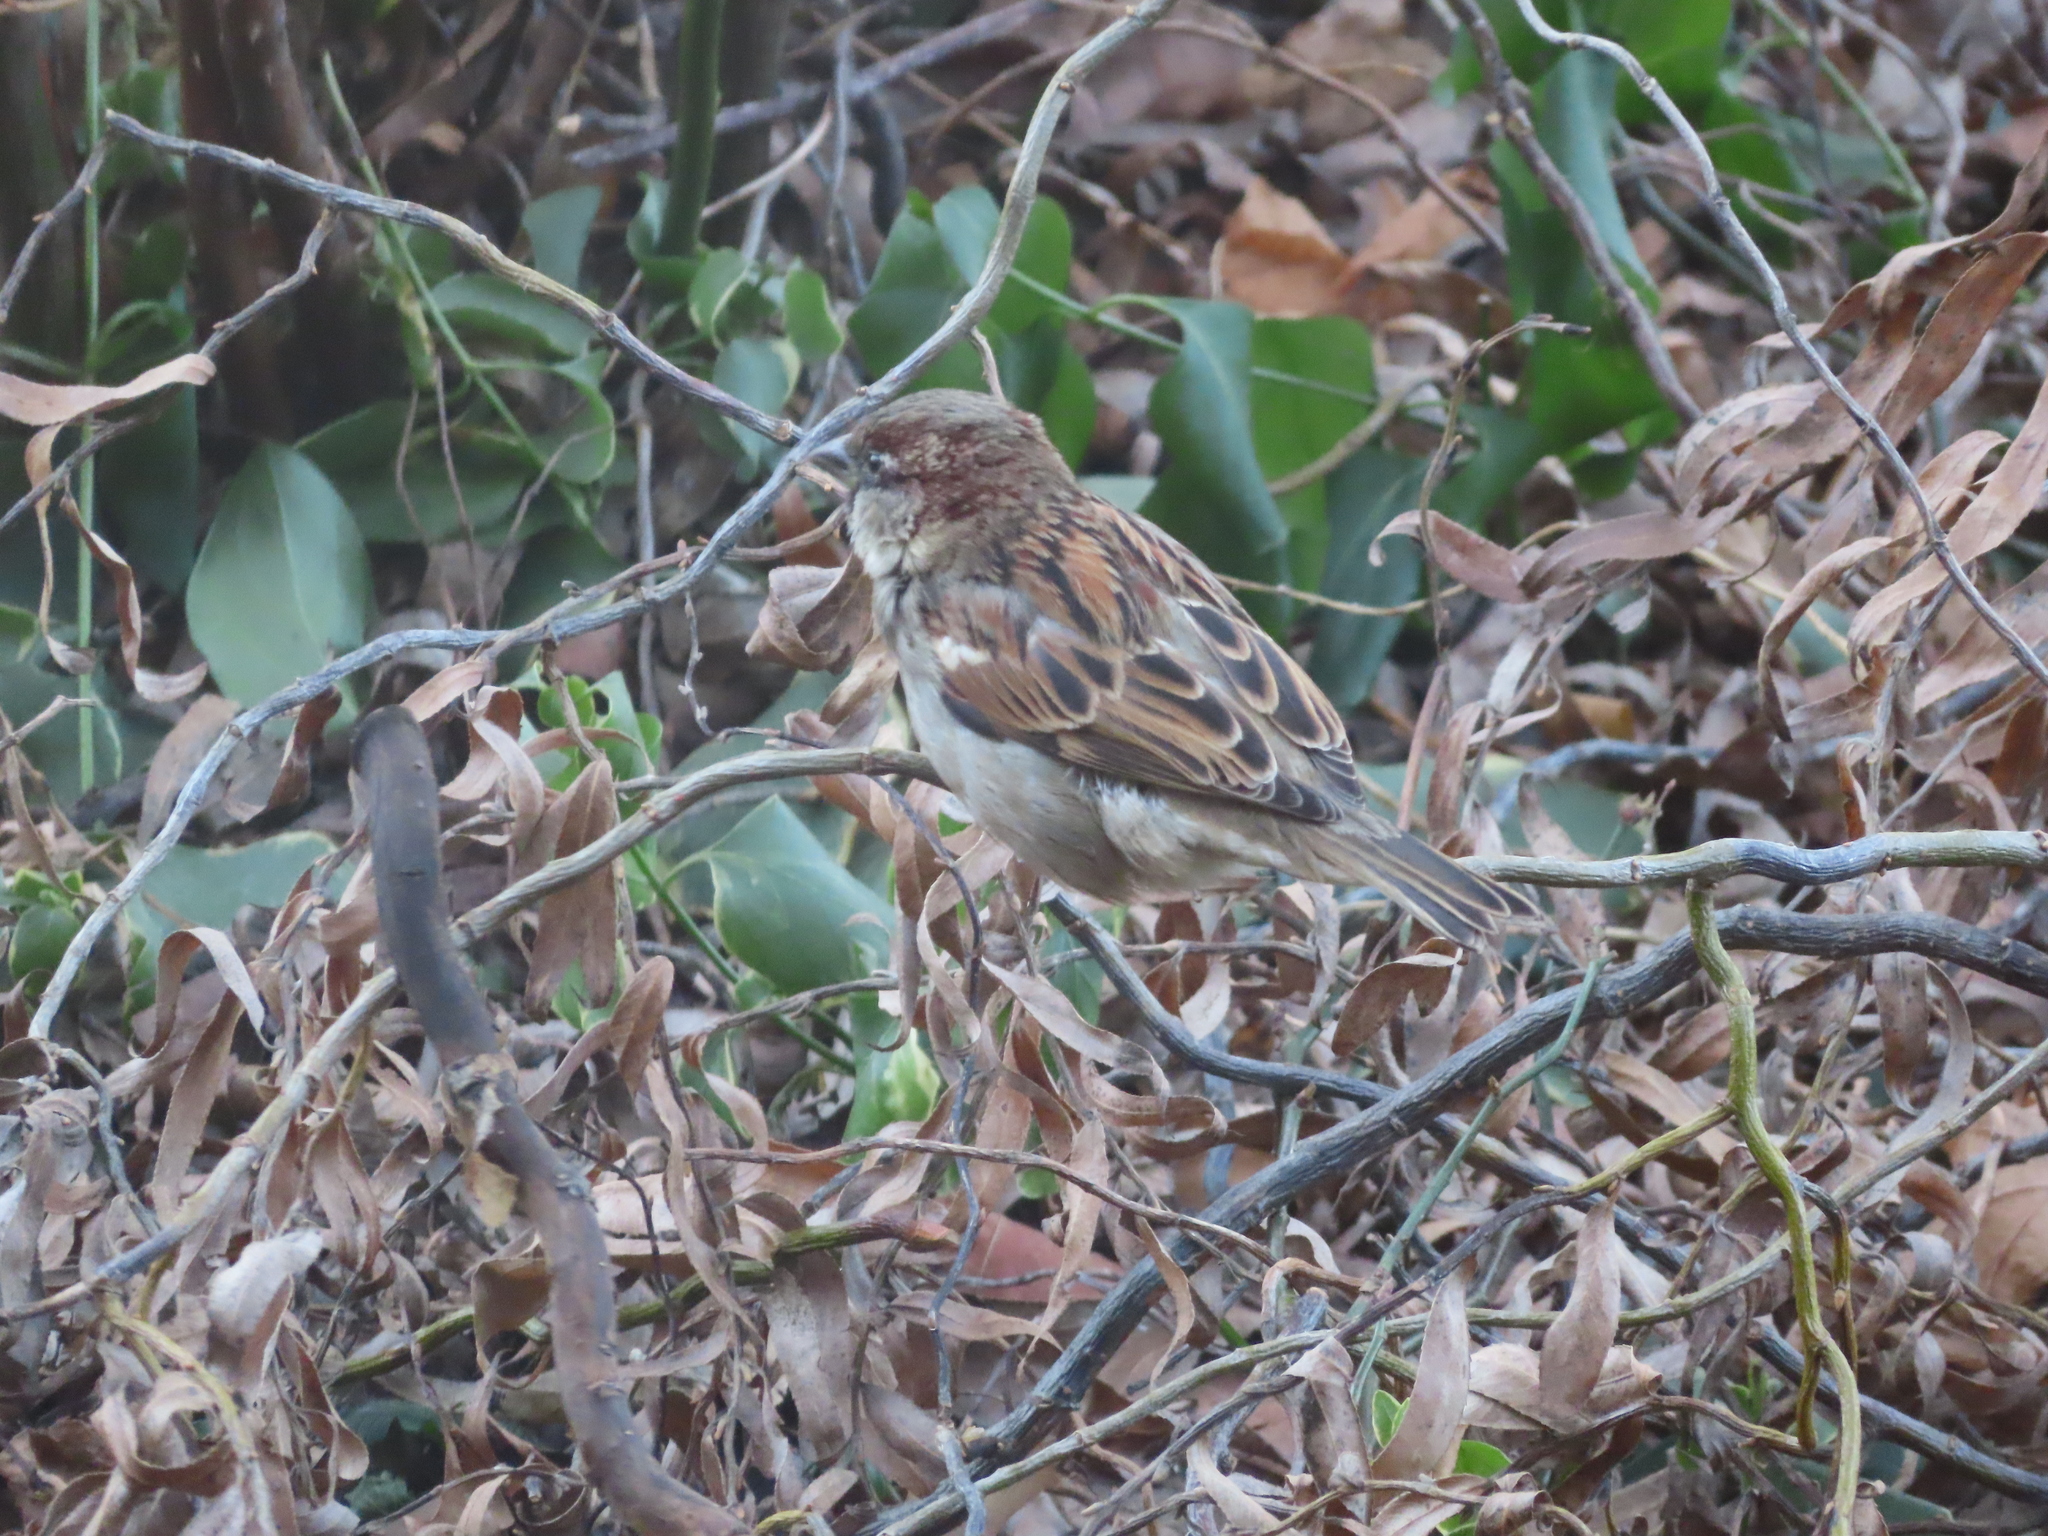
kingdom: Animalia
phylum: Chordata
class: Aves
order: Passeriformes
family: Passeridae
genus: Passer
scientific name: Passer domesticus
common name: House sparrow
